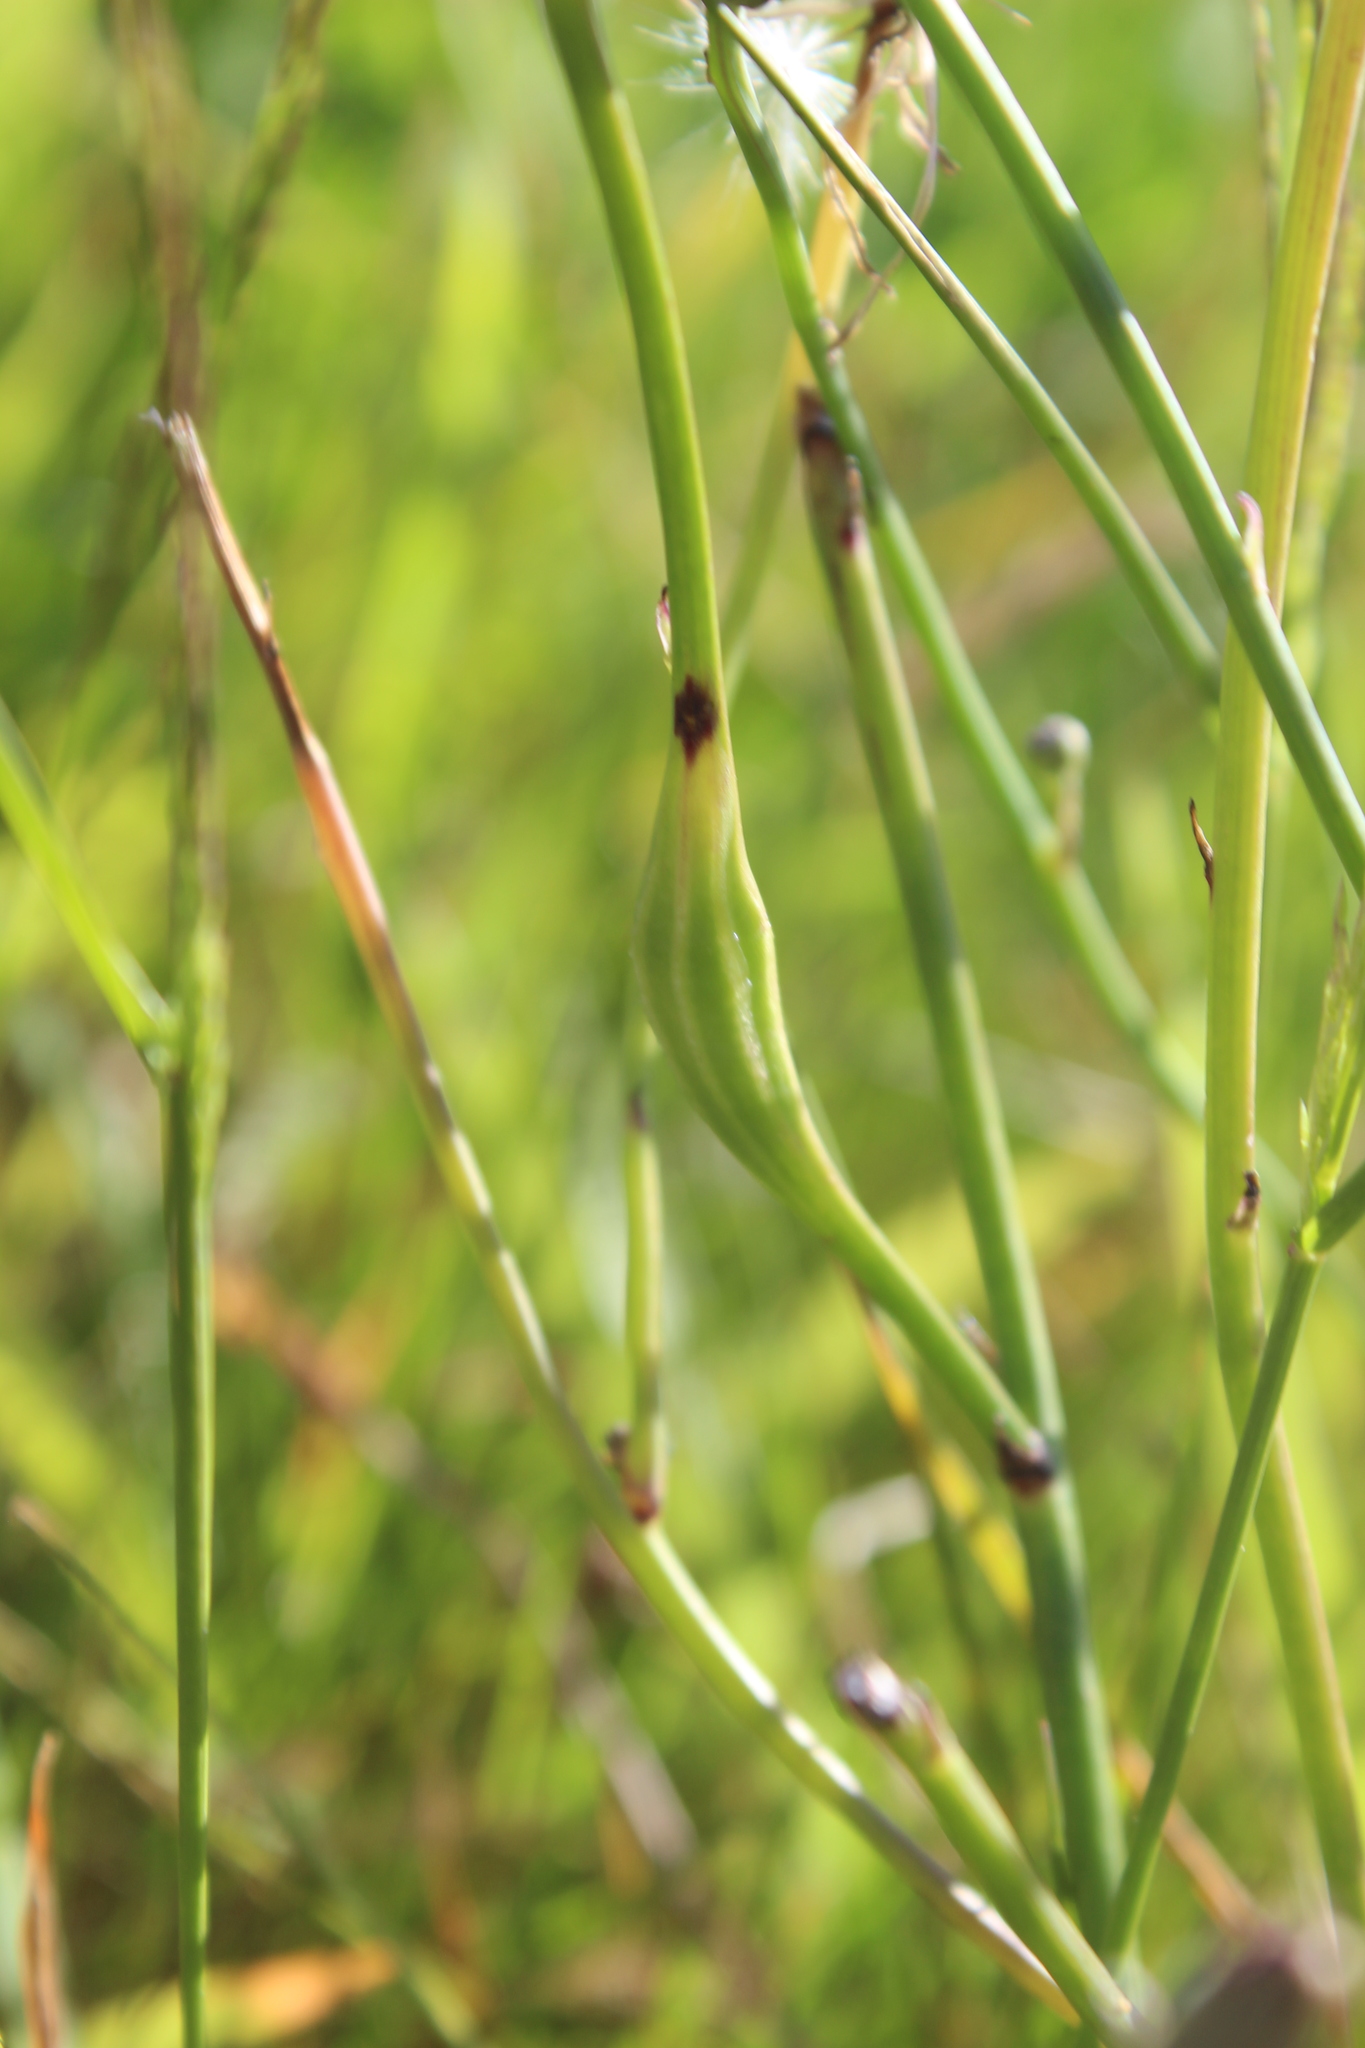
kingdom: Animalia
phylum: Arthropoda
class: Insecta
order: Hymenoptera
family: Cynipidae
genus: Phanacis
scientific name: Phanacis hypochoeridis
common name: Gall wasp
